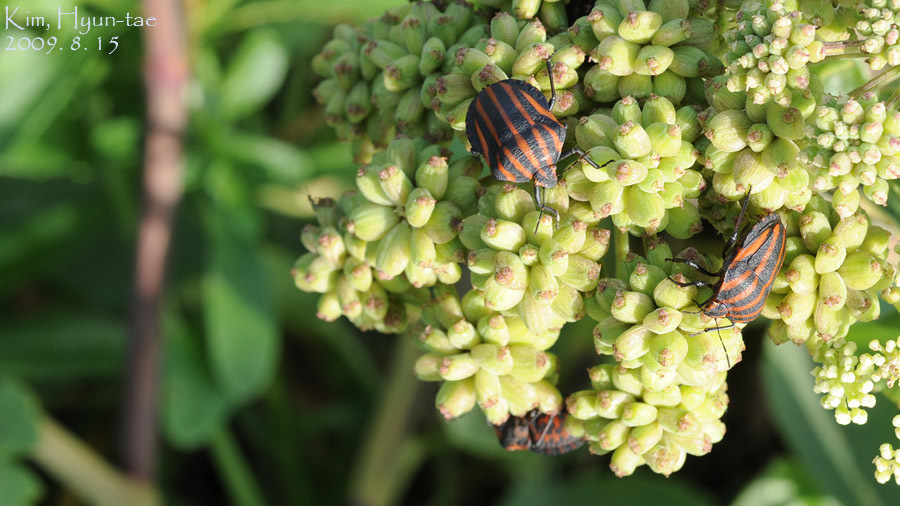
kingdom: Animalia
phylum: Arthropoda
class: Insecta
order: Hemiptera
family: Pentatomidae
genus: Graphosoma
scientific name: Graphosoma rubrolineatum
